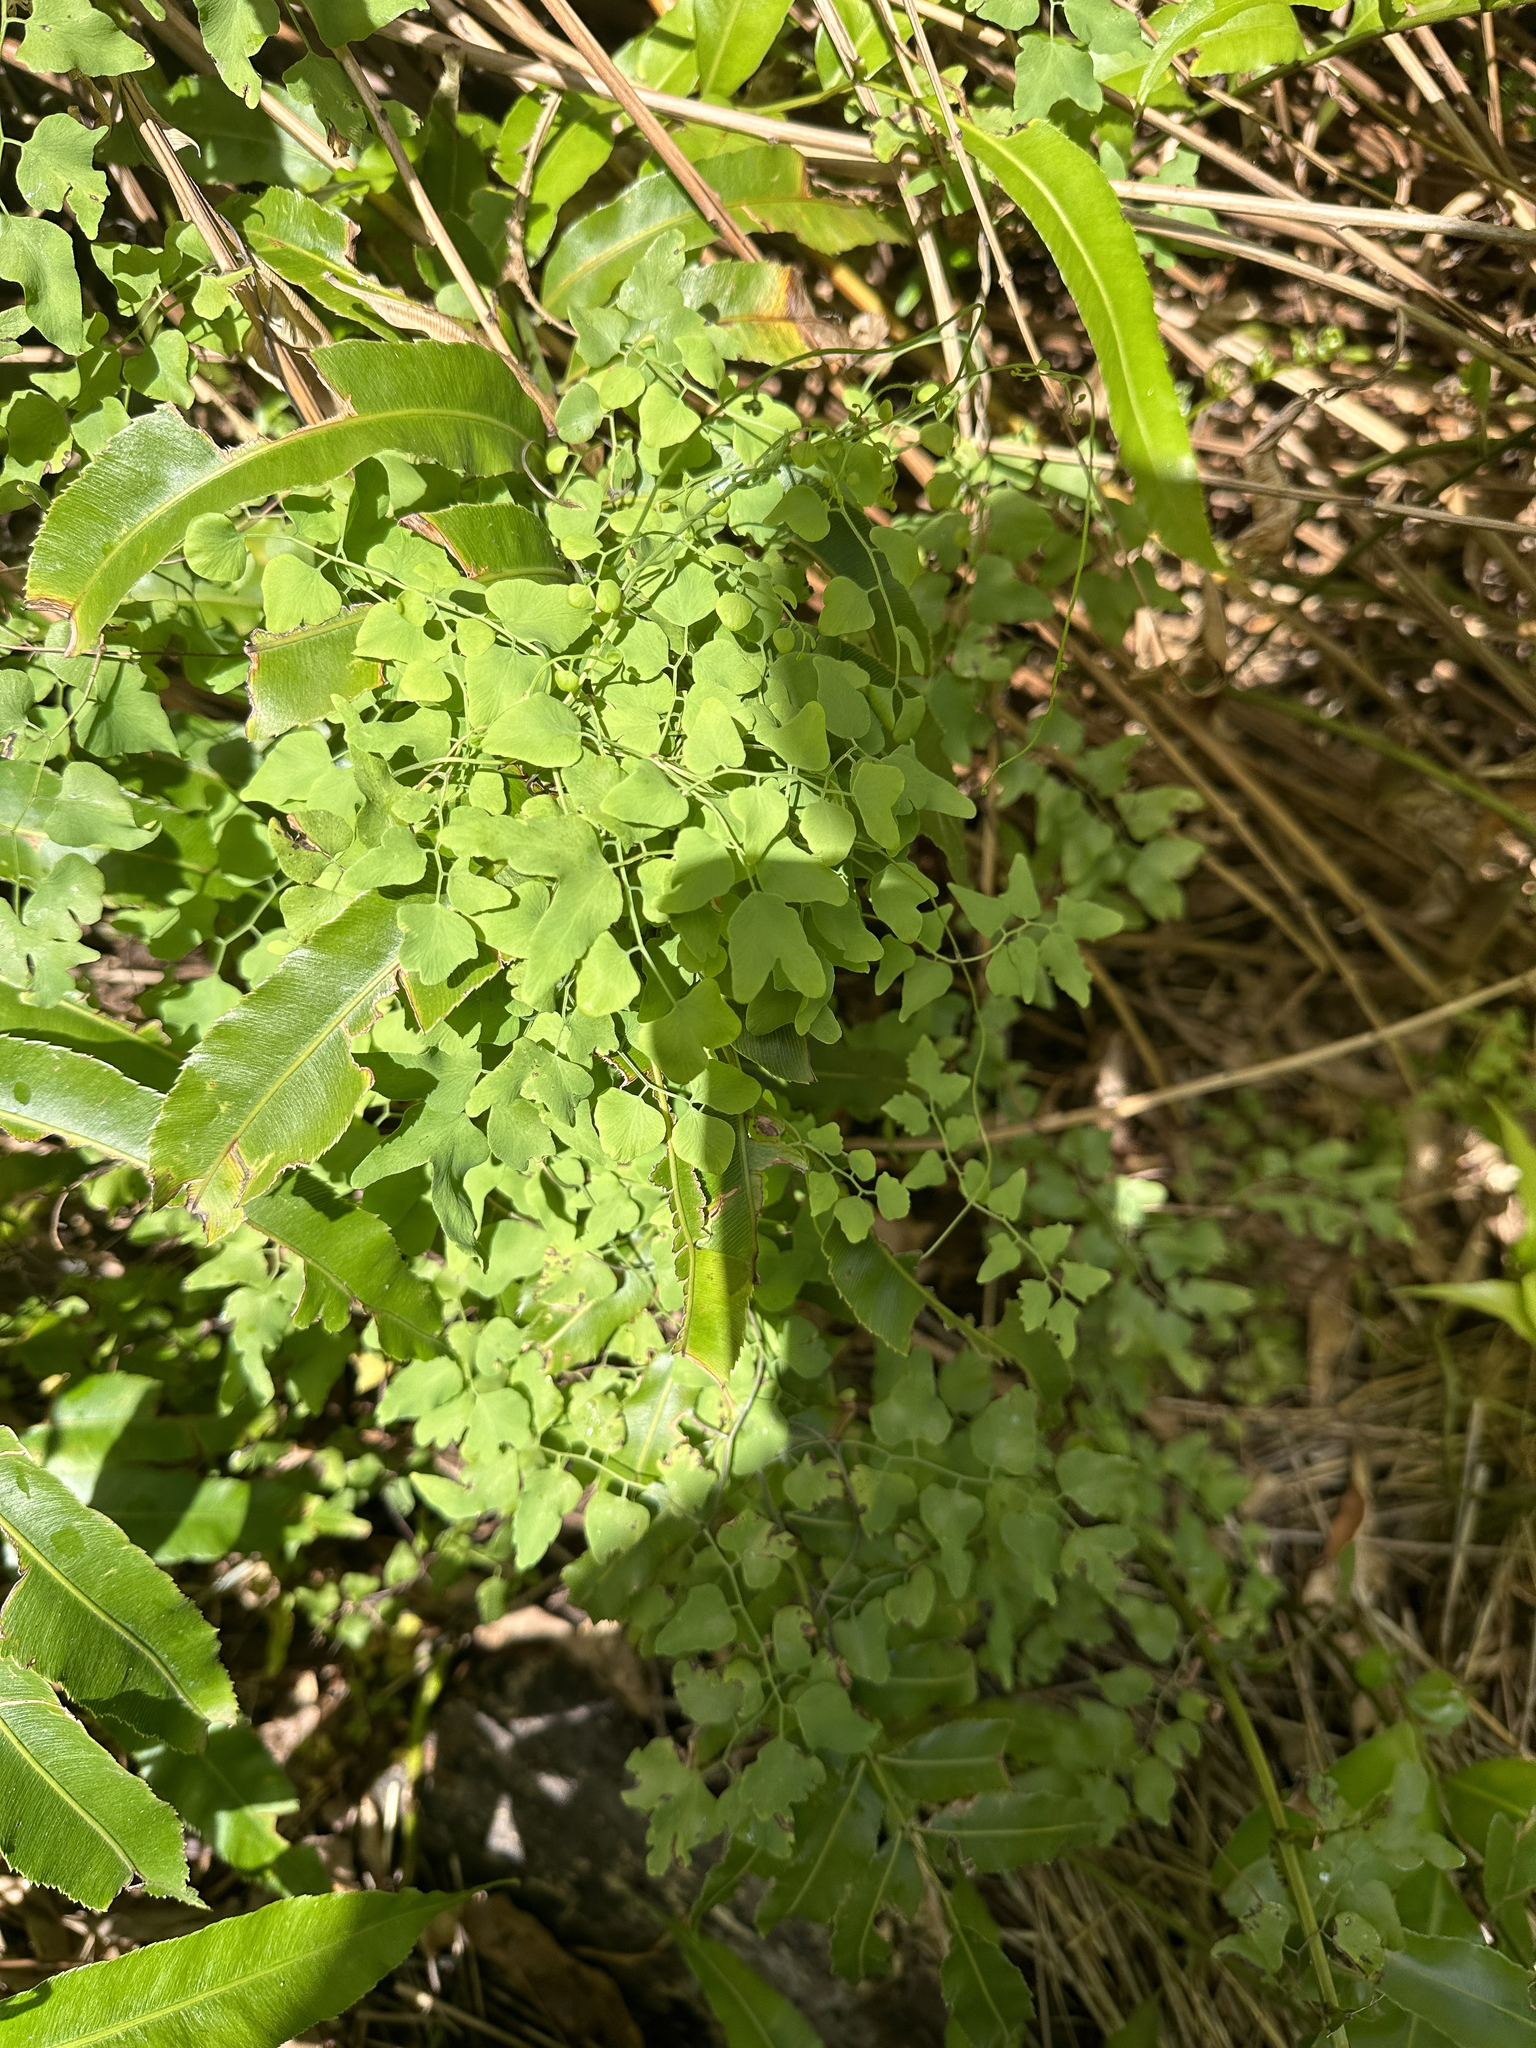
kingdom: Plantae
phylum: Tracheophyta
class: Polypodiopsida
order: Schizaeales
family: Lygodiaceae
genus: Lygodium
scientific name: Lygodium microphyllum
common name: Small-leaf climbing fern
